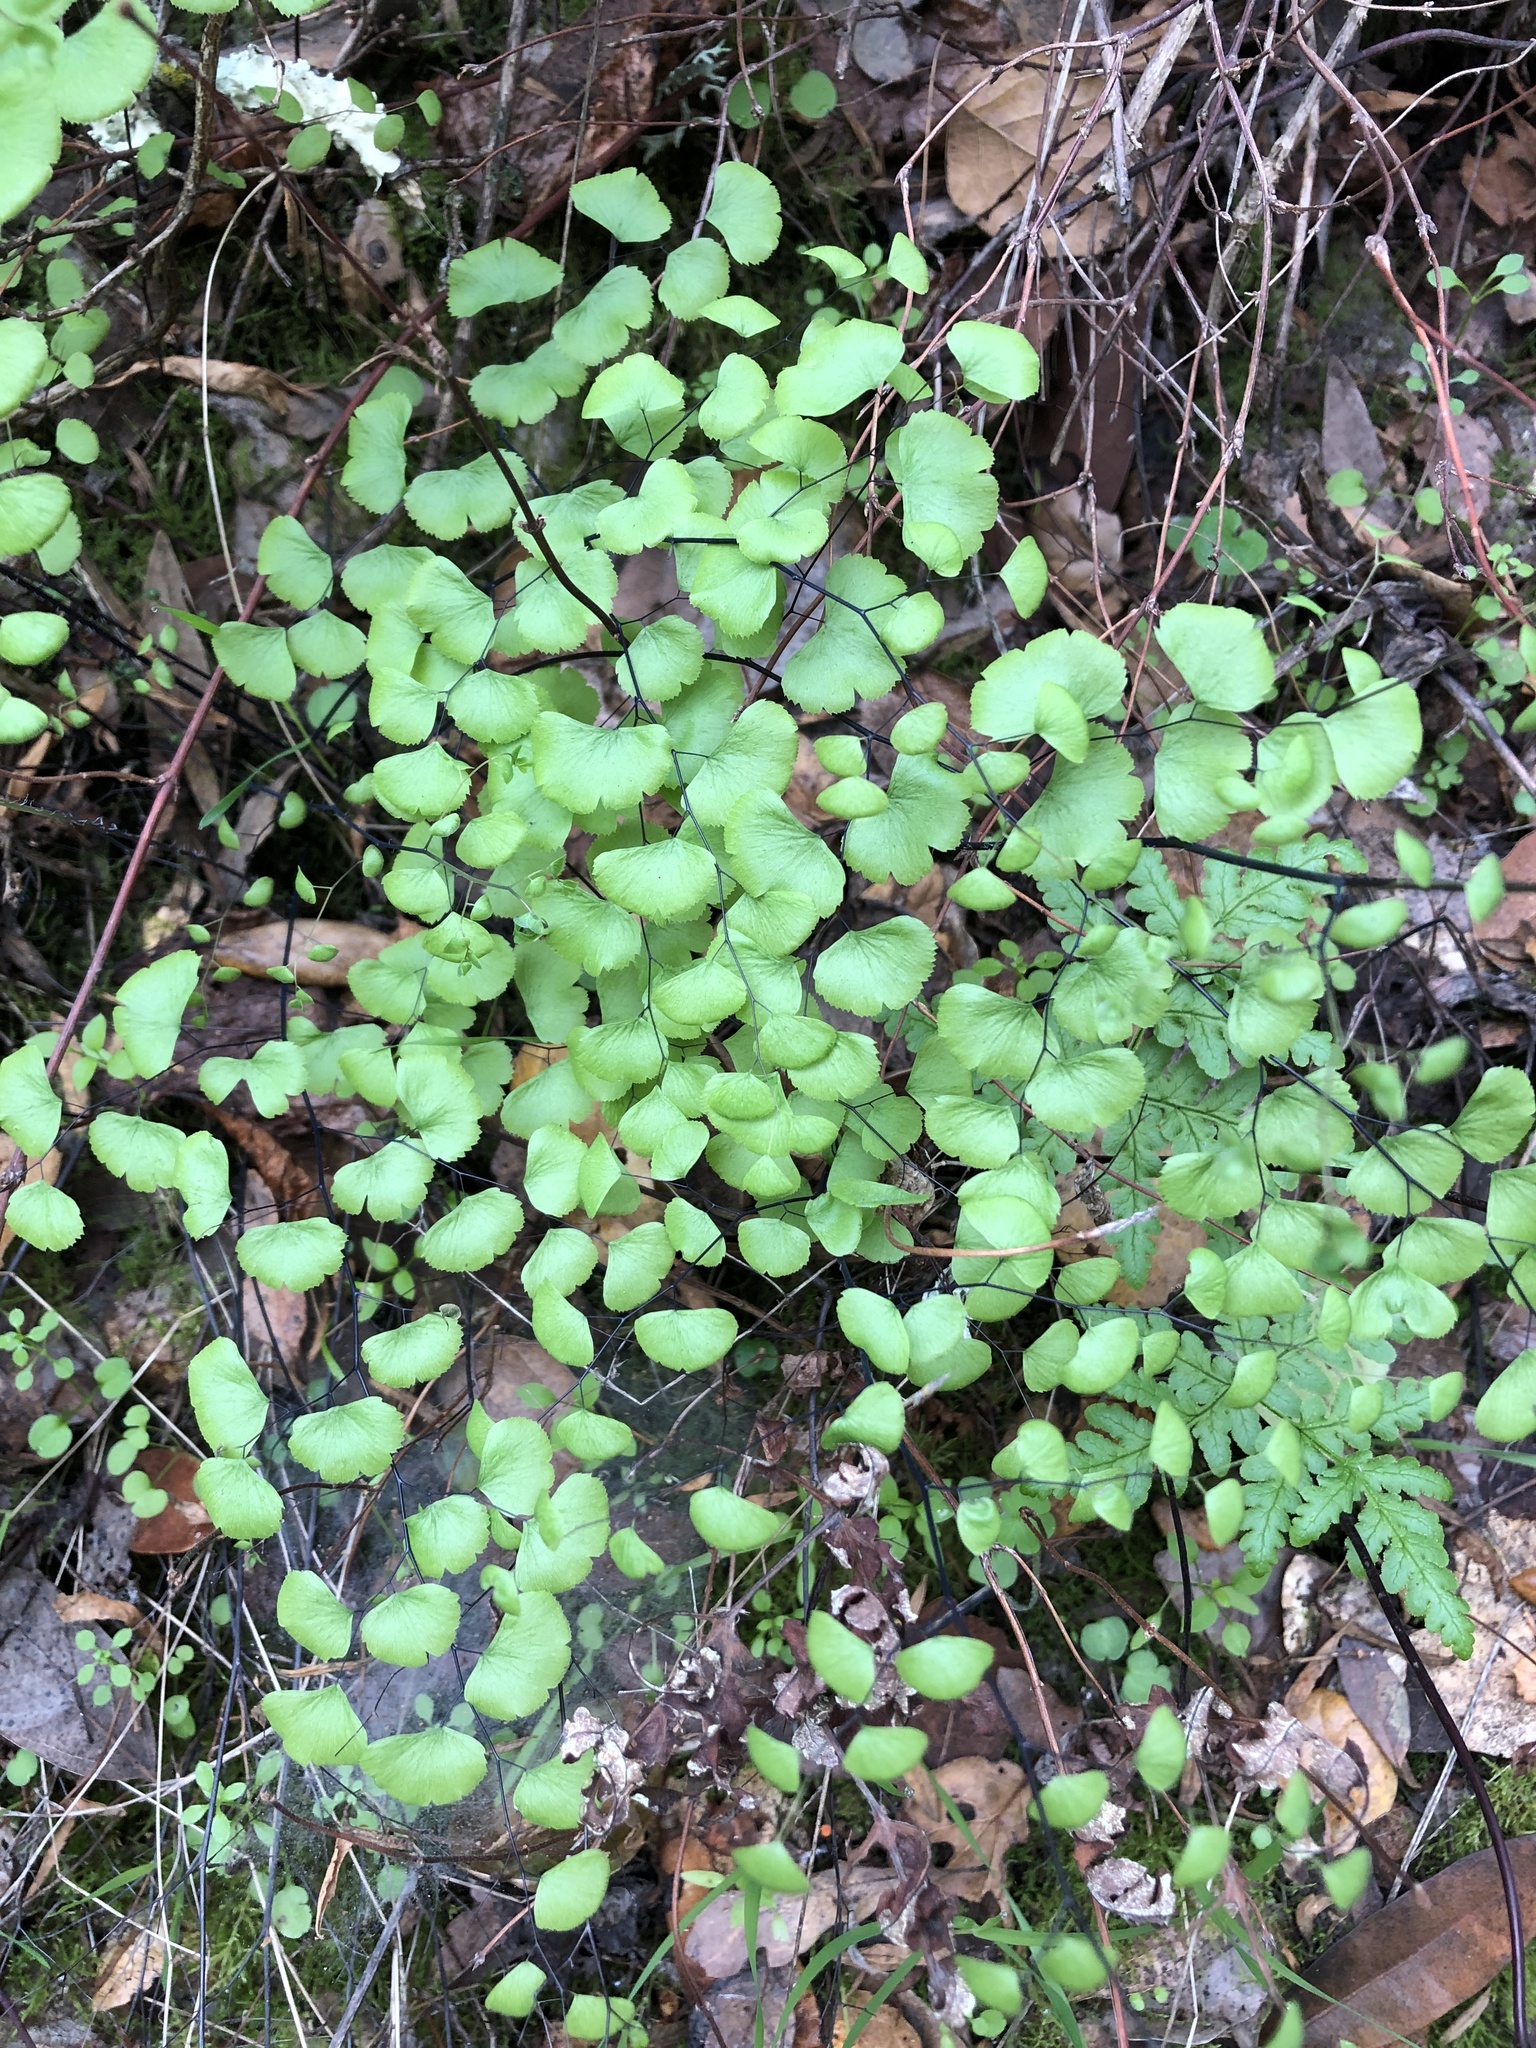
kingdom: Plantae
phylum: Tracheophyta
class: Polypodiopsida
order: Polypodiales
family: Pteridaceae
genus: Adiantum
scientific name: Adiantum jordanii
